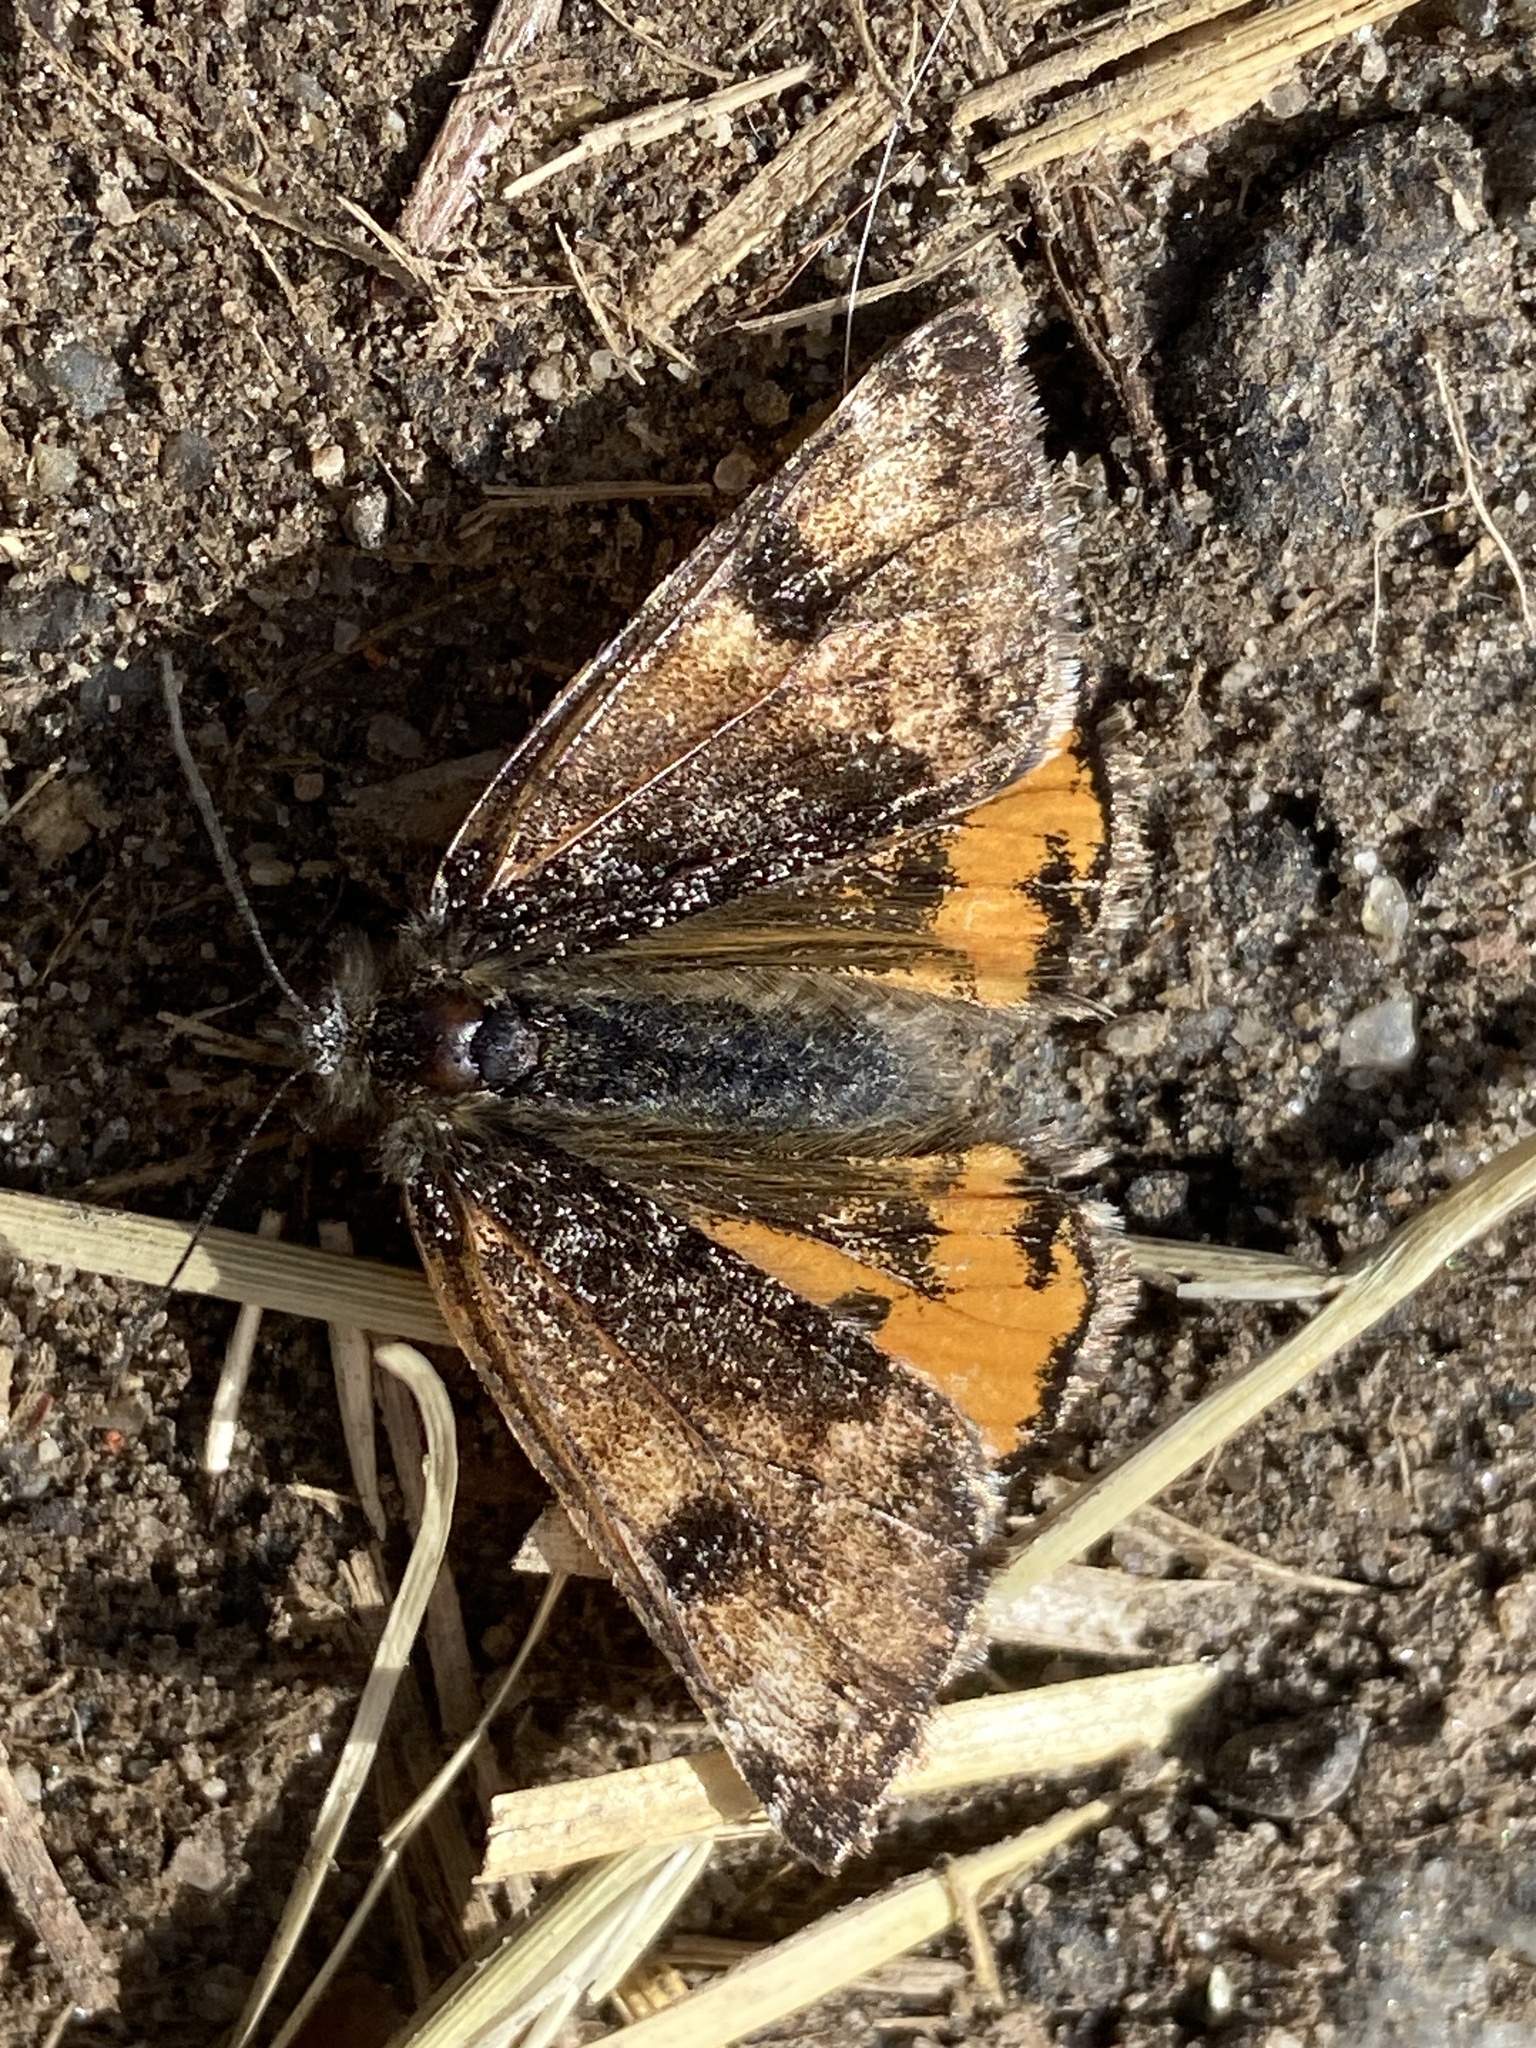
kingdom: Animalia
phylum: Arthropoda
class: Insecta
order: Lepidoptera
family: Geometridae
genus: Archiearis
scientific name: Archiearis parthenias
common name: Orange underwing
